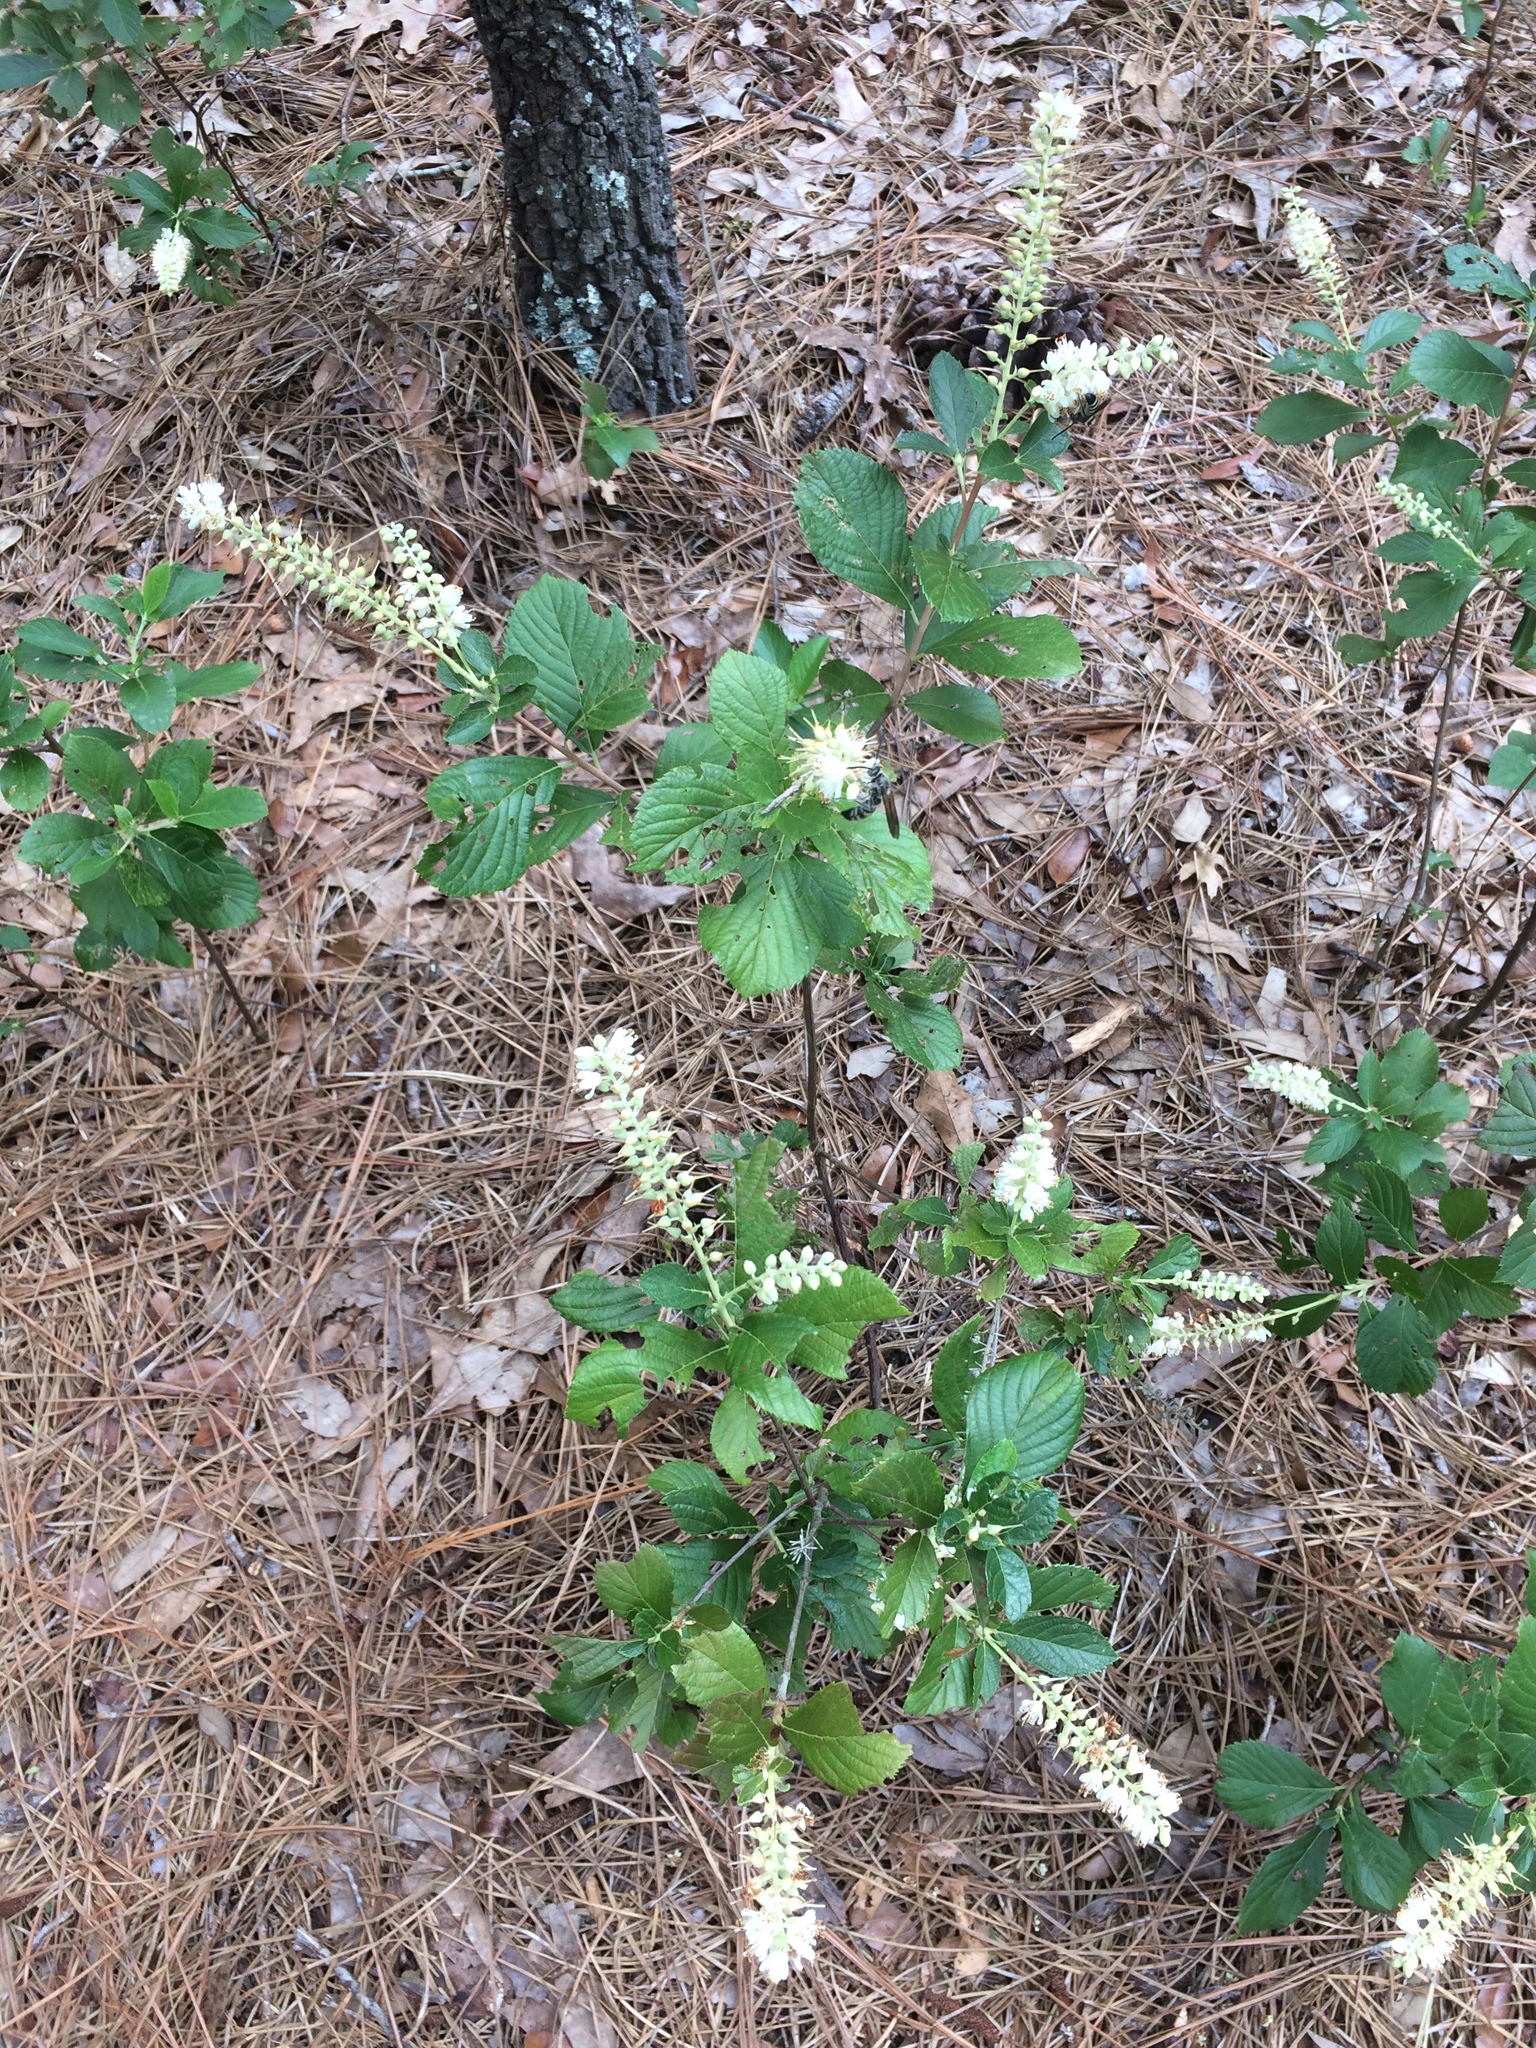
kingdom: Plantae
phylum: Tracheophyta
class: Magnoliopsida
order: Ericales
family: Clethraceae
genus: Clethra
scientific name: Clethra alnifolia
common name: Sweet pepperbush
